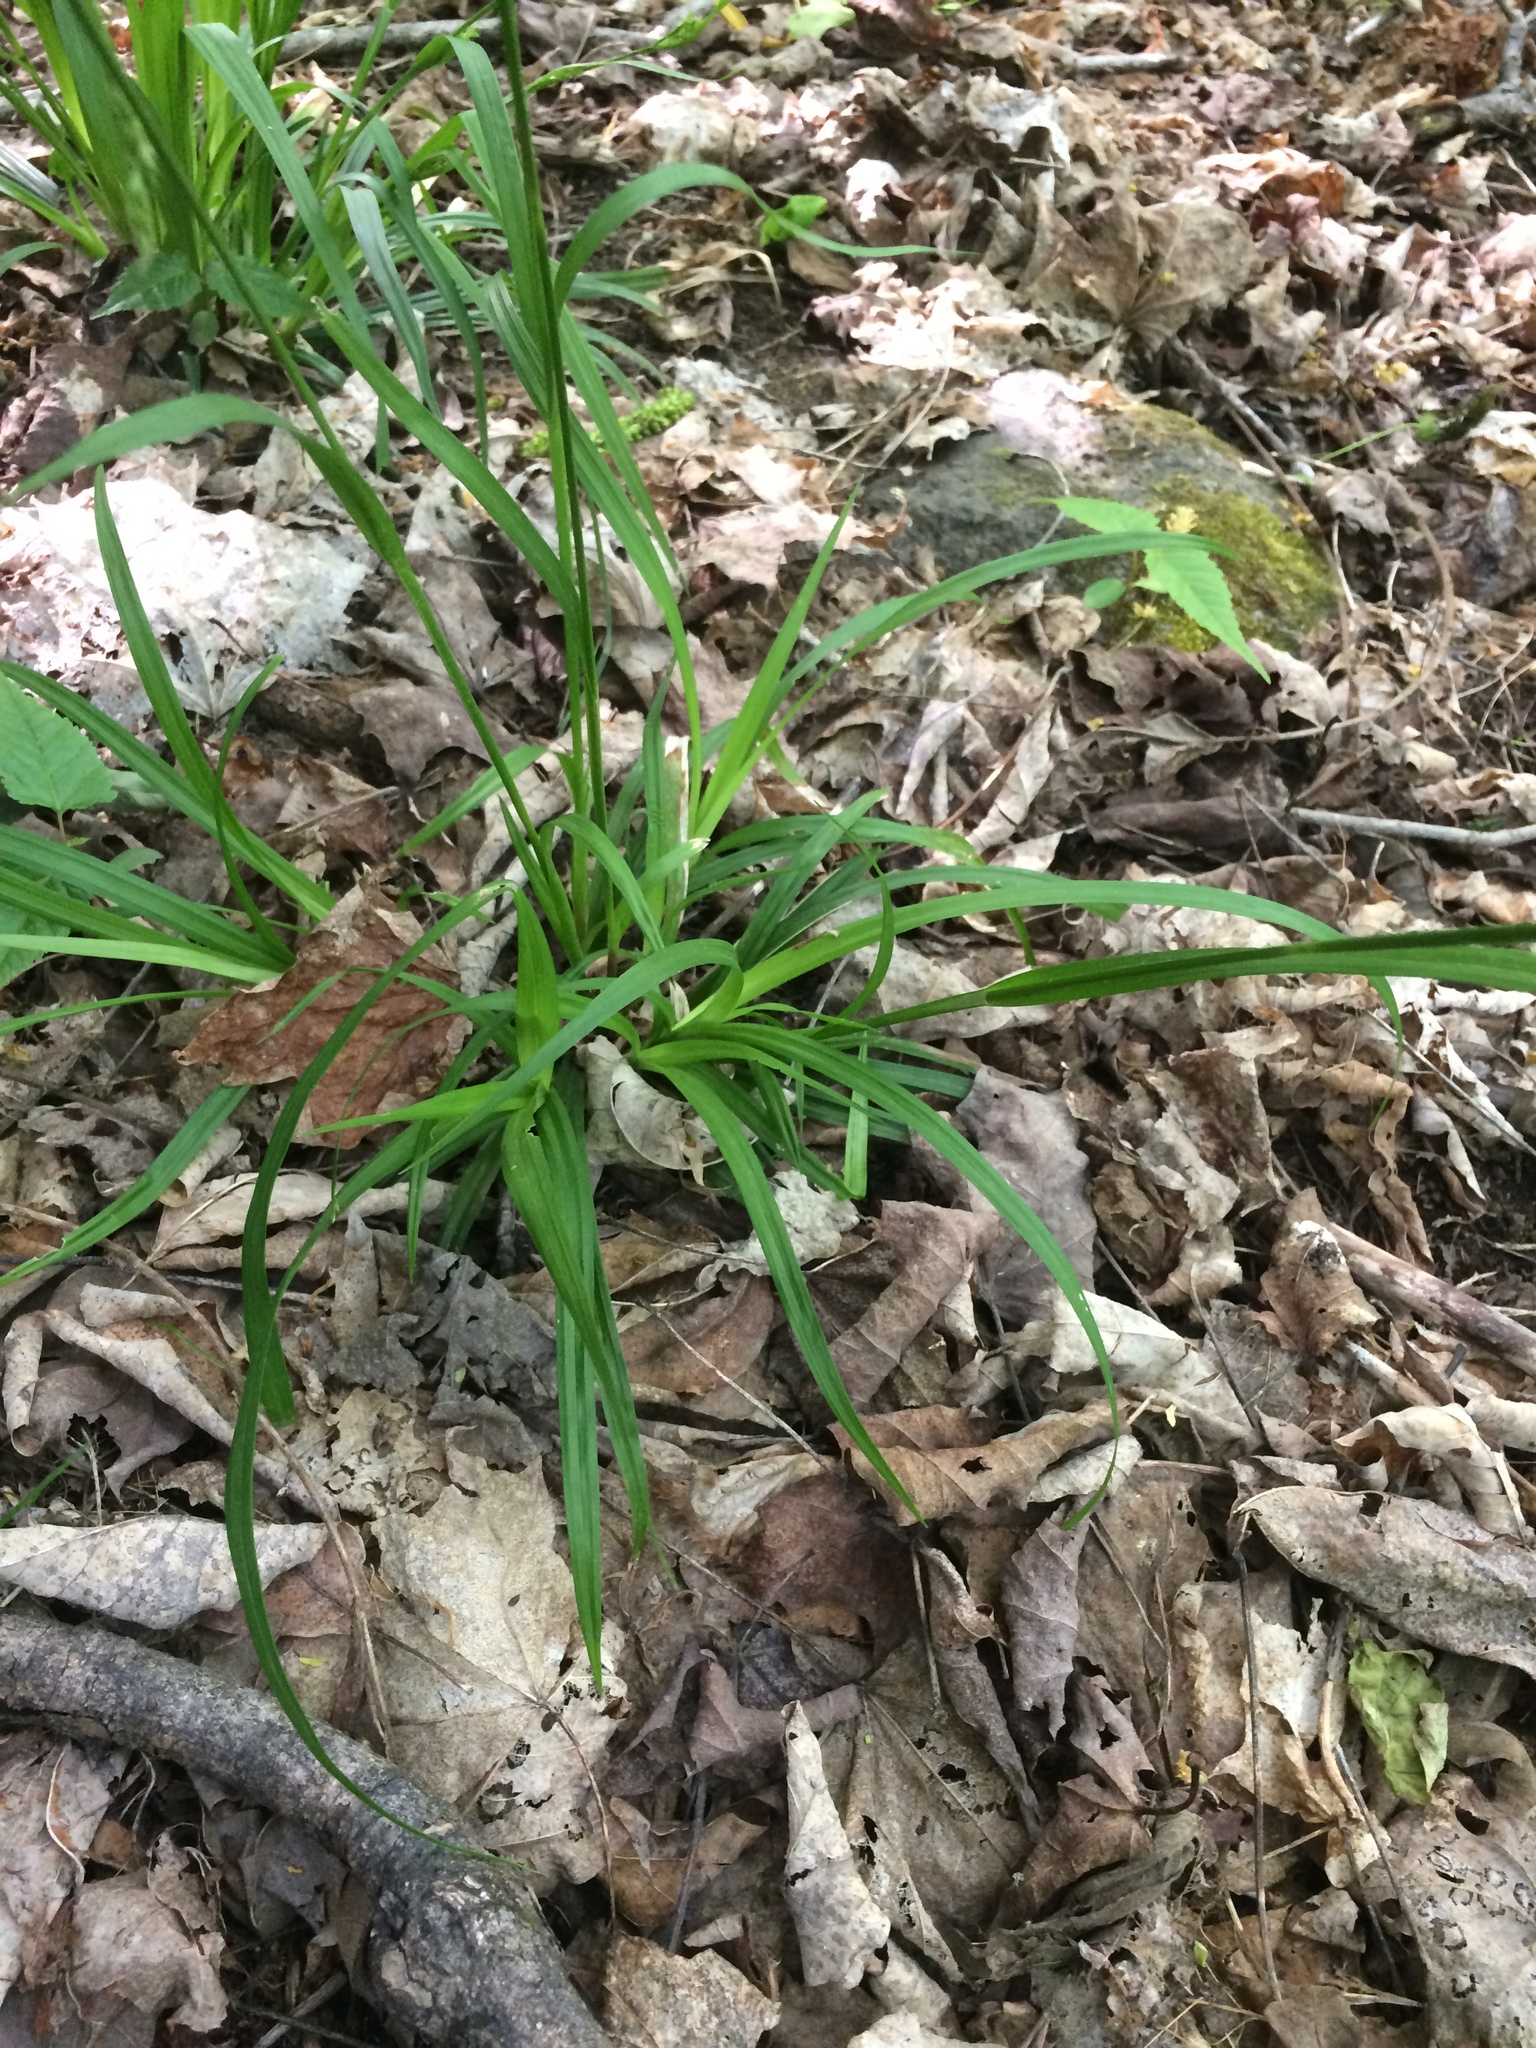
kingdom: Plantae
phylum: Tracheophyta
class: Liliopsida
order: Poales
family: Cyperaceae
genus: Carex
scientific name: Carex arctata
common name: Black sedge
